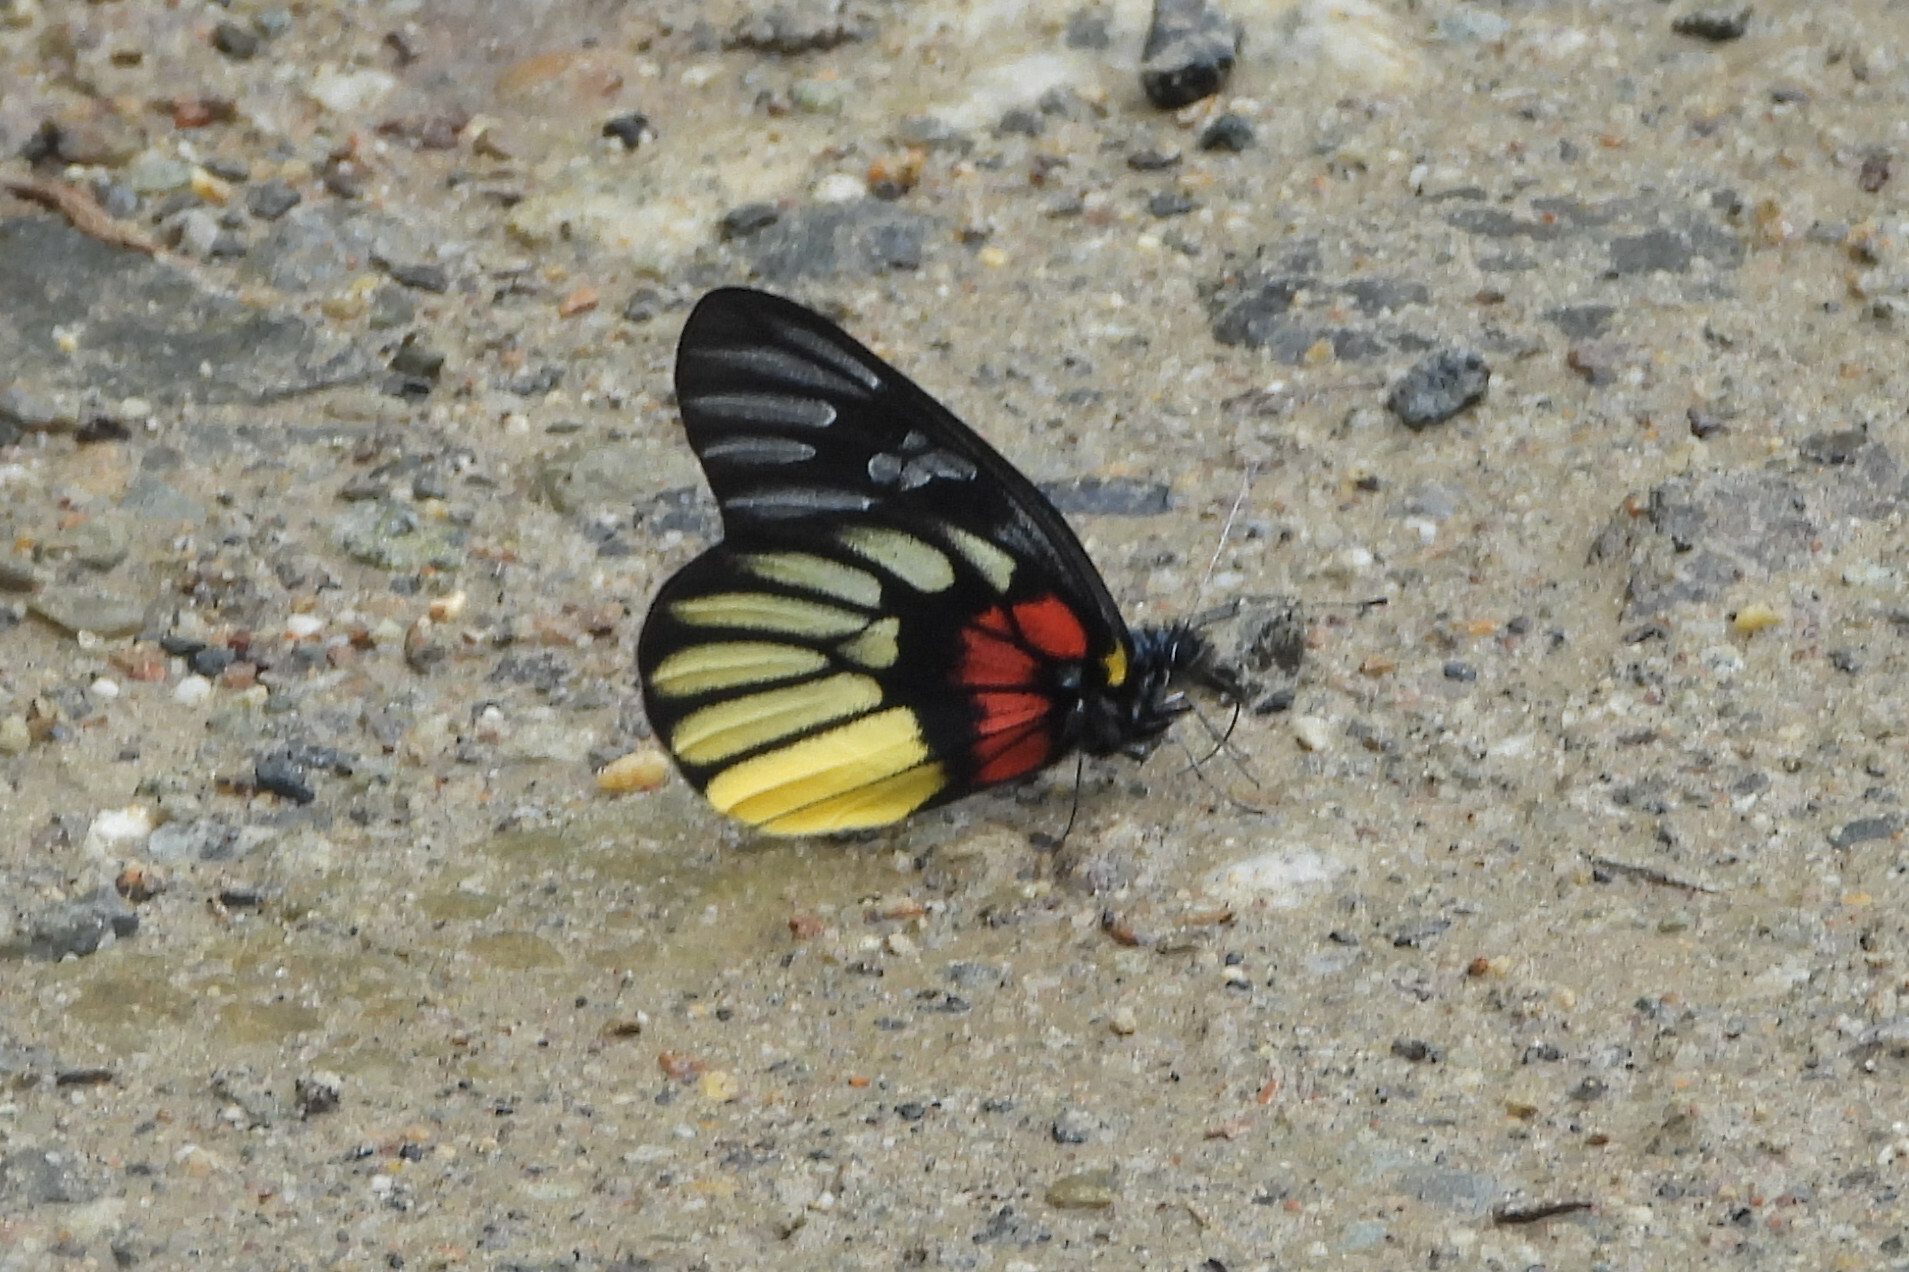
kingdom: Animalia
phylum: Arthropoda
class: Insecta
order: Lepidoptera
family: Pieridae
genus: Delias
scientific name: Delias acalis
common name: Red-breast jezebel
